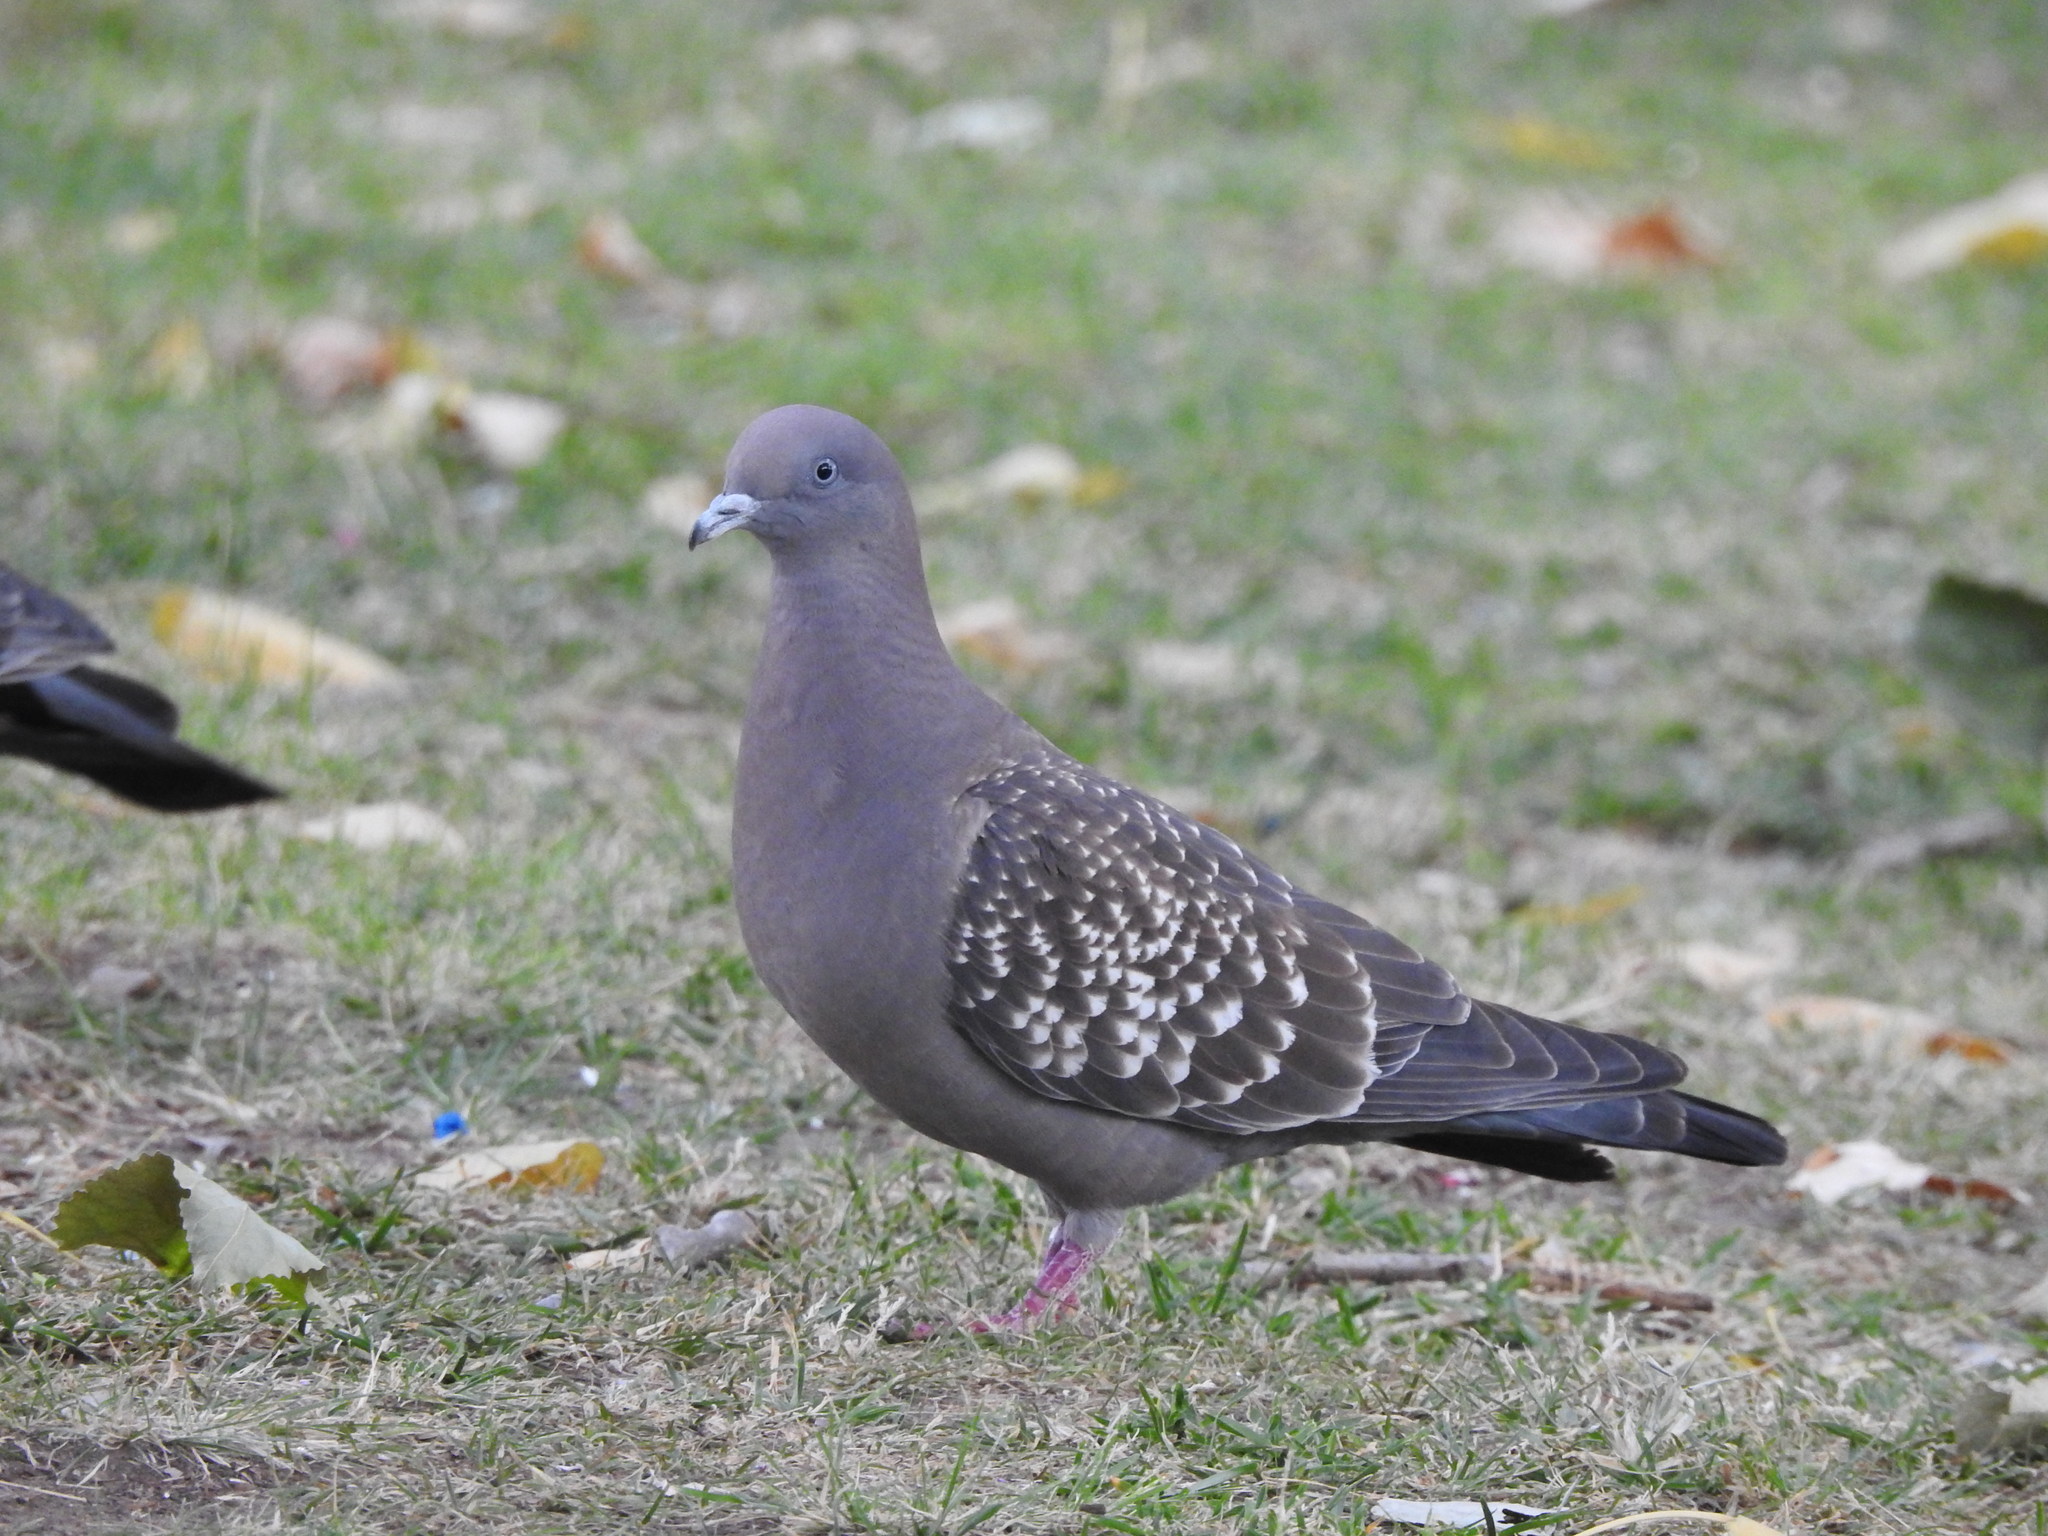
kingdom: Animalia
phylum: Chordata
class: Aves
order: Columbiformes
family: Columbidae
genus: Patagioenas
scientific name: Patagioenas maculosa
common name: Spot-winged pigeon
